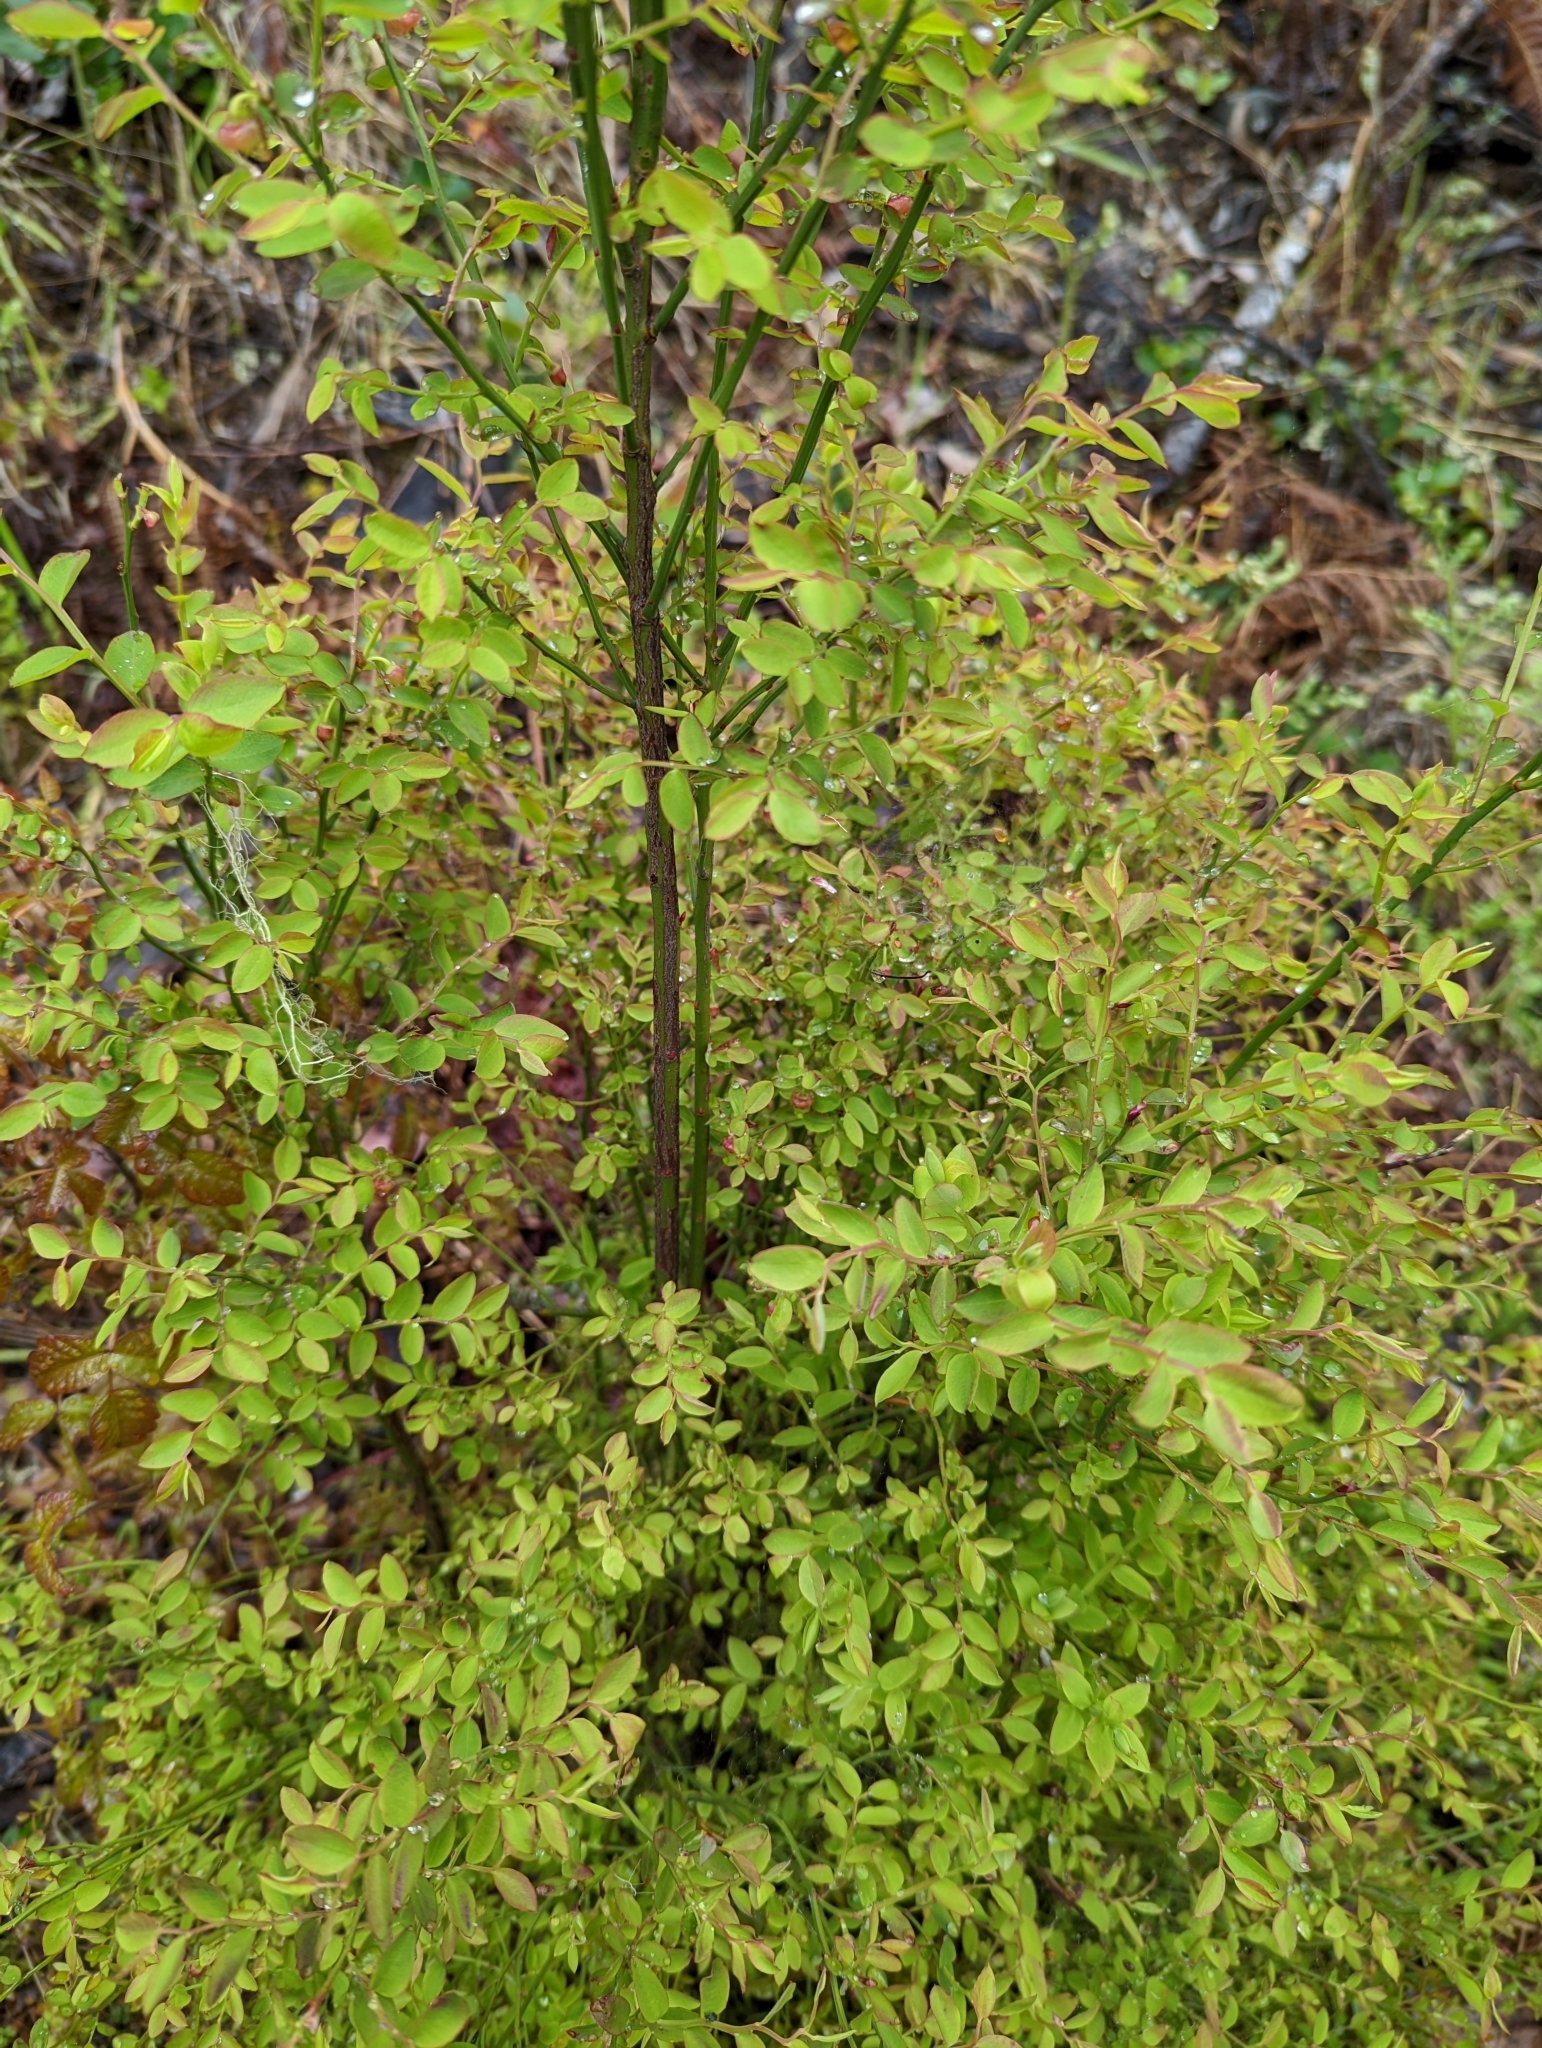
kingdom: Plantae
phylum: Tracheophyta
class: Magnoliopsida
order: Ericales
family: Ericaceae
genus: Vaccinium
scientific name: Vaccinium parvifolium
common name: Red-huckleberry
